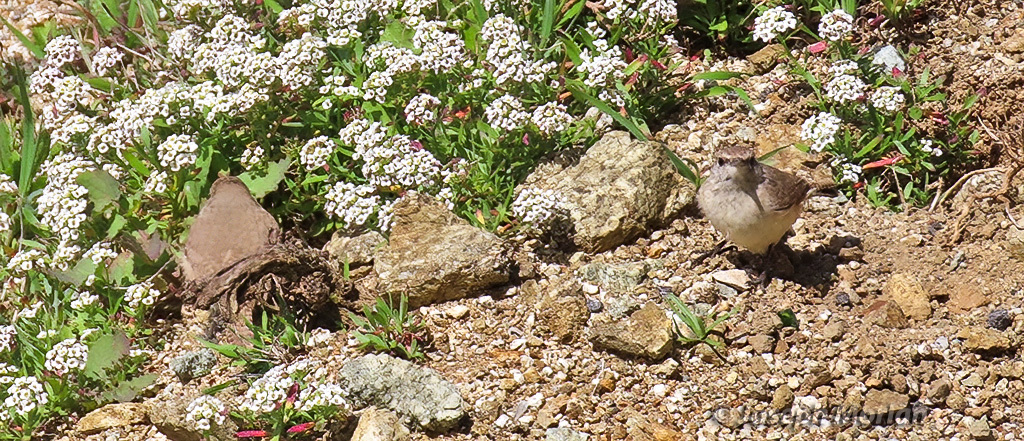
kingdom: Animalia
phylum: Chordata
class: Aves
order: Passeriformes
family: Troglodytidae
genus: Salpinctes
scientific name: Salpinctes obsoletus
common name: Rock wren
